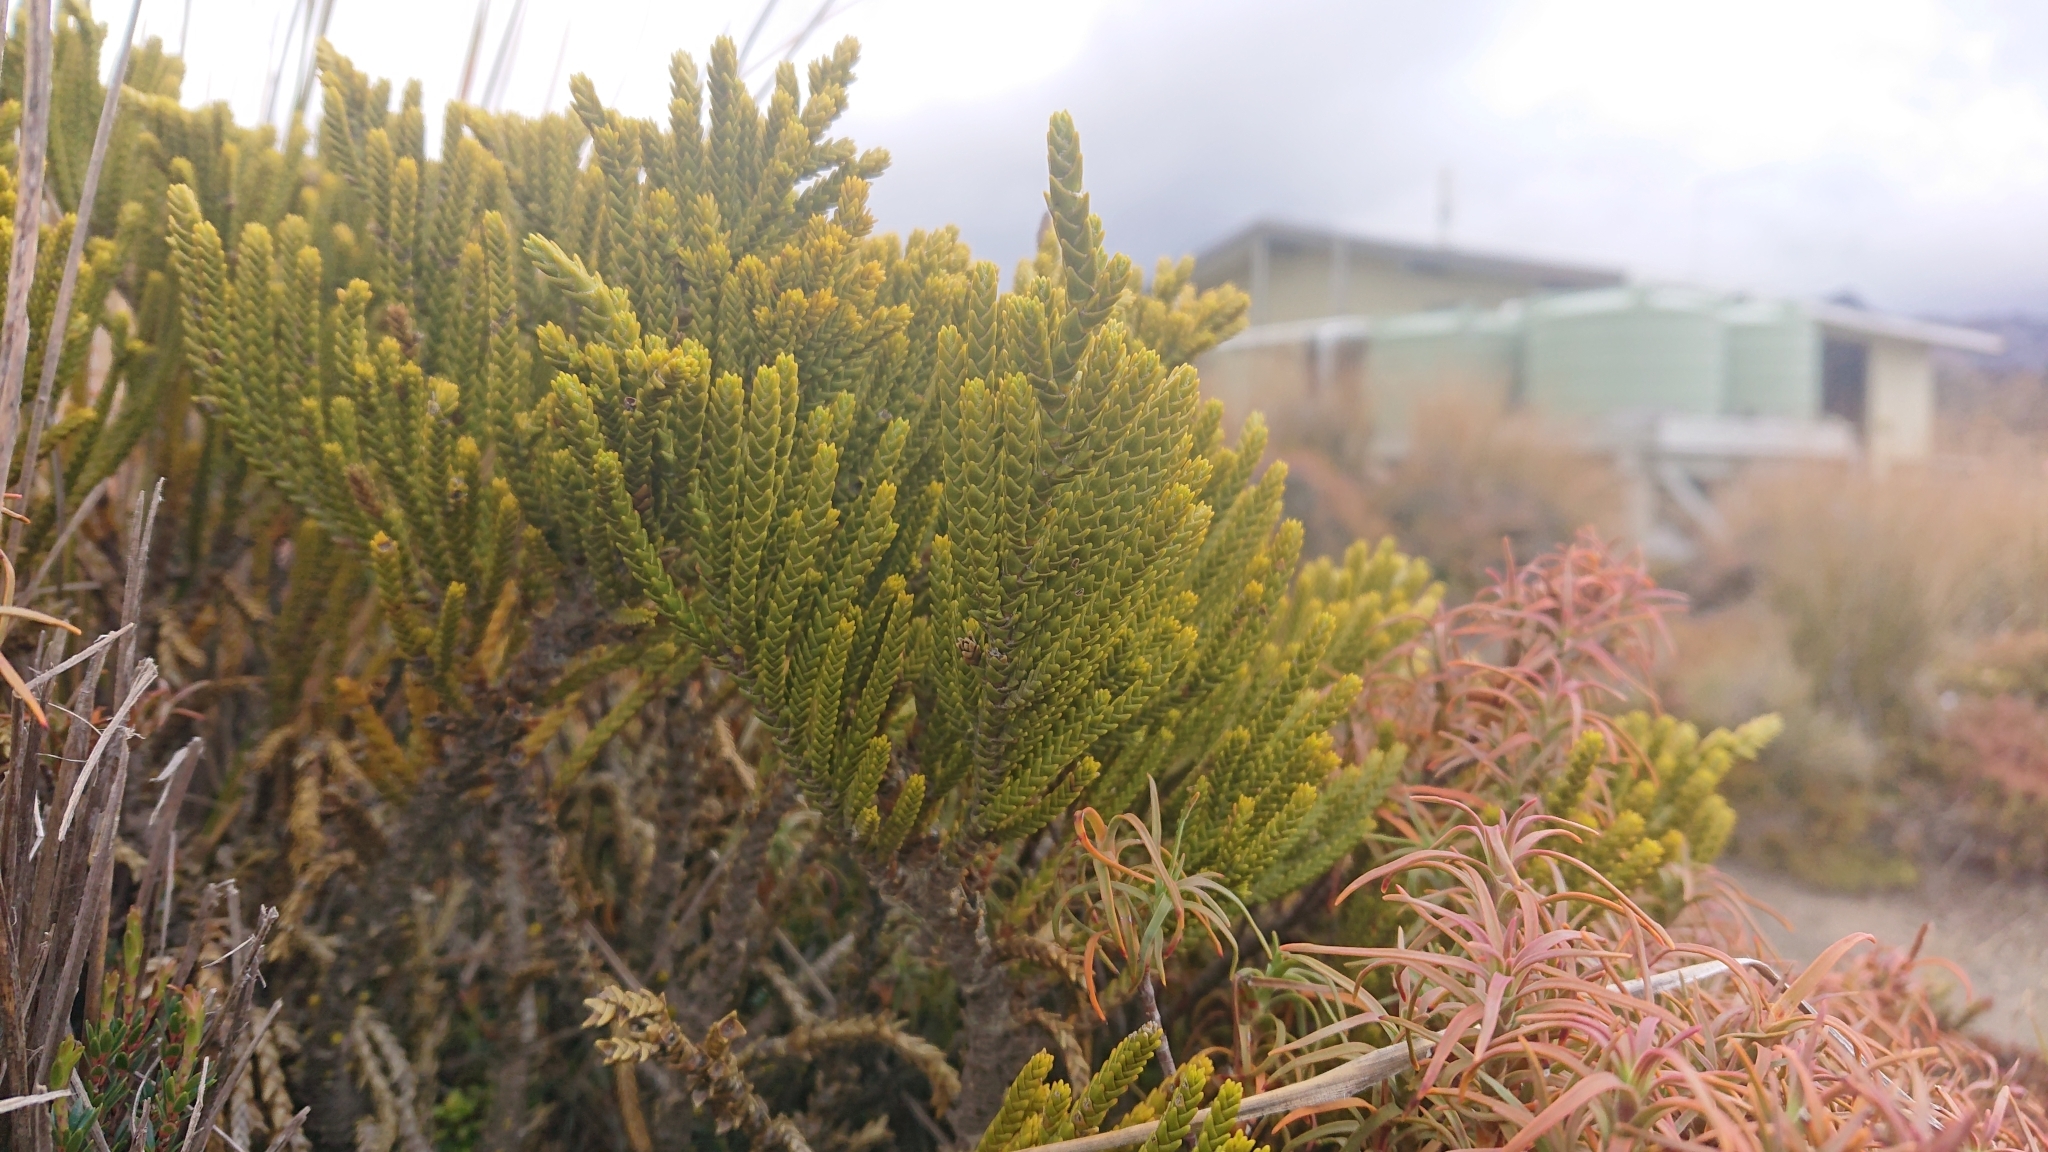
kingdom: Plantae
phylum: Tracheophyta
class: Magnoliopsida
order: Lamiales
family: Plantaginaceae
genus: Veronica
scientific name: Veronica tetragona
